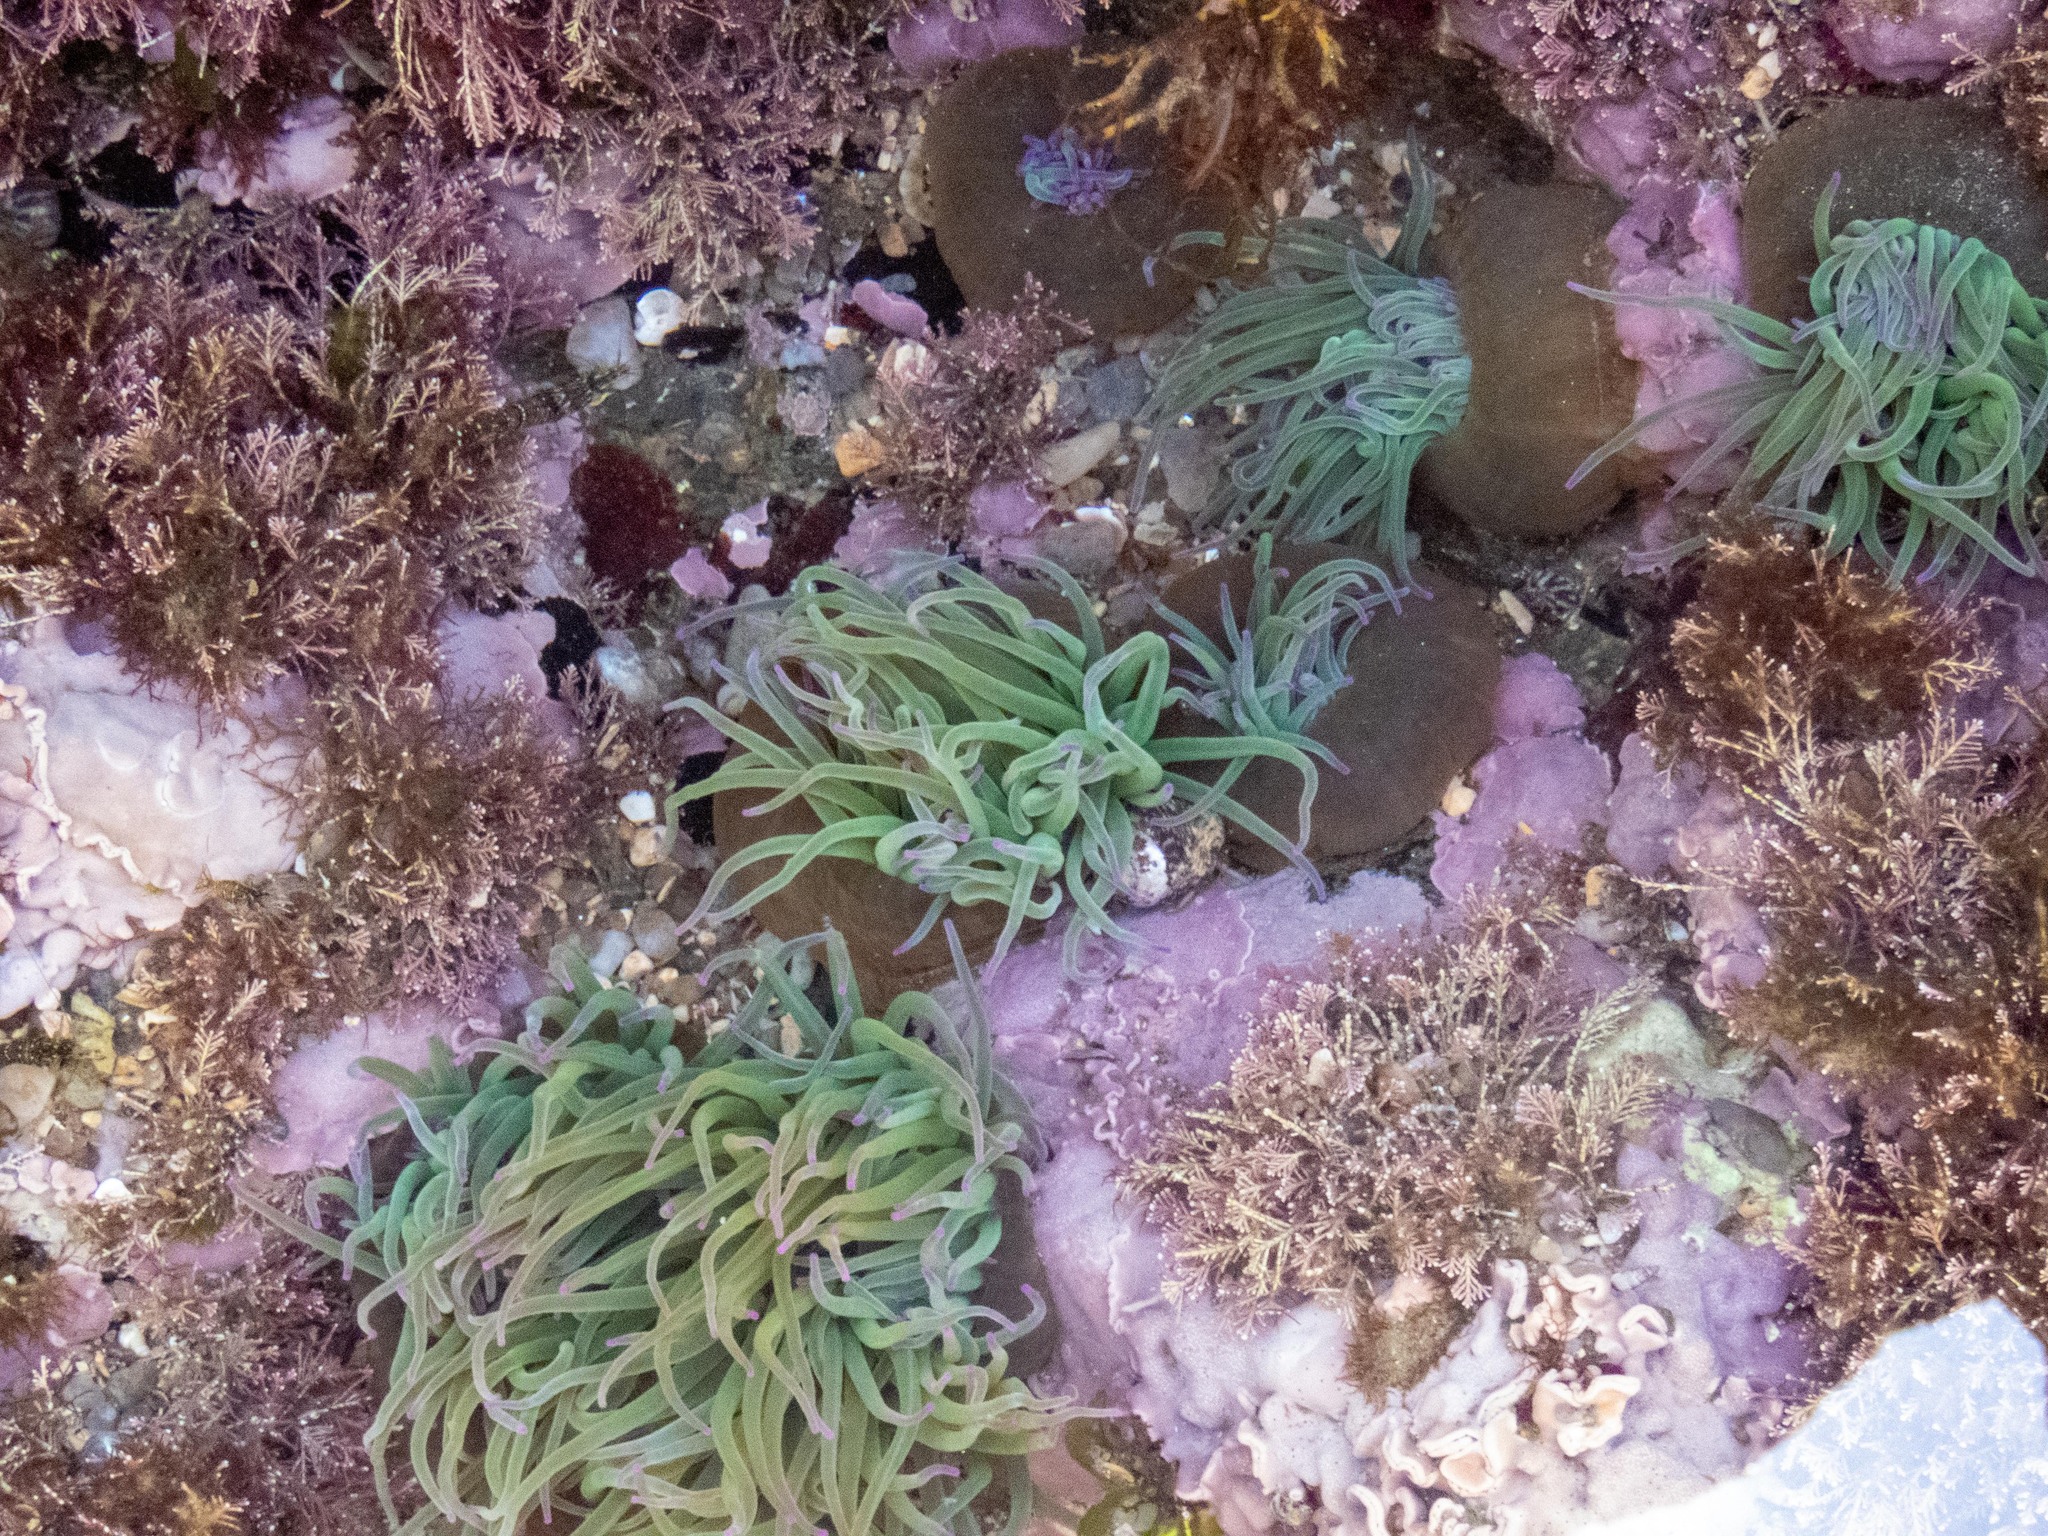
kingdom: Animalia
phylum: Cnidaria
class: Anthozoa
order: Actiniaria
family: Actiniidae
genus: Anemonia
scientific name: Anemonia viridis
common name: Snakelocks anemone
